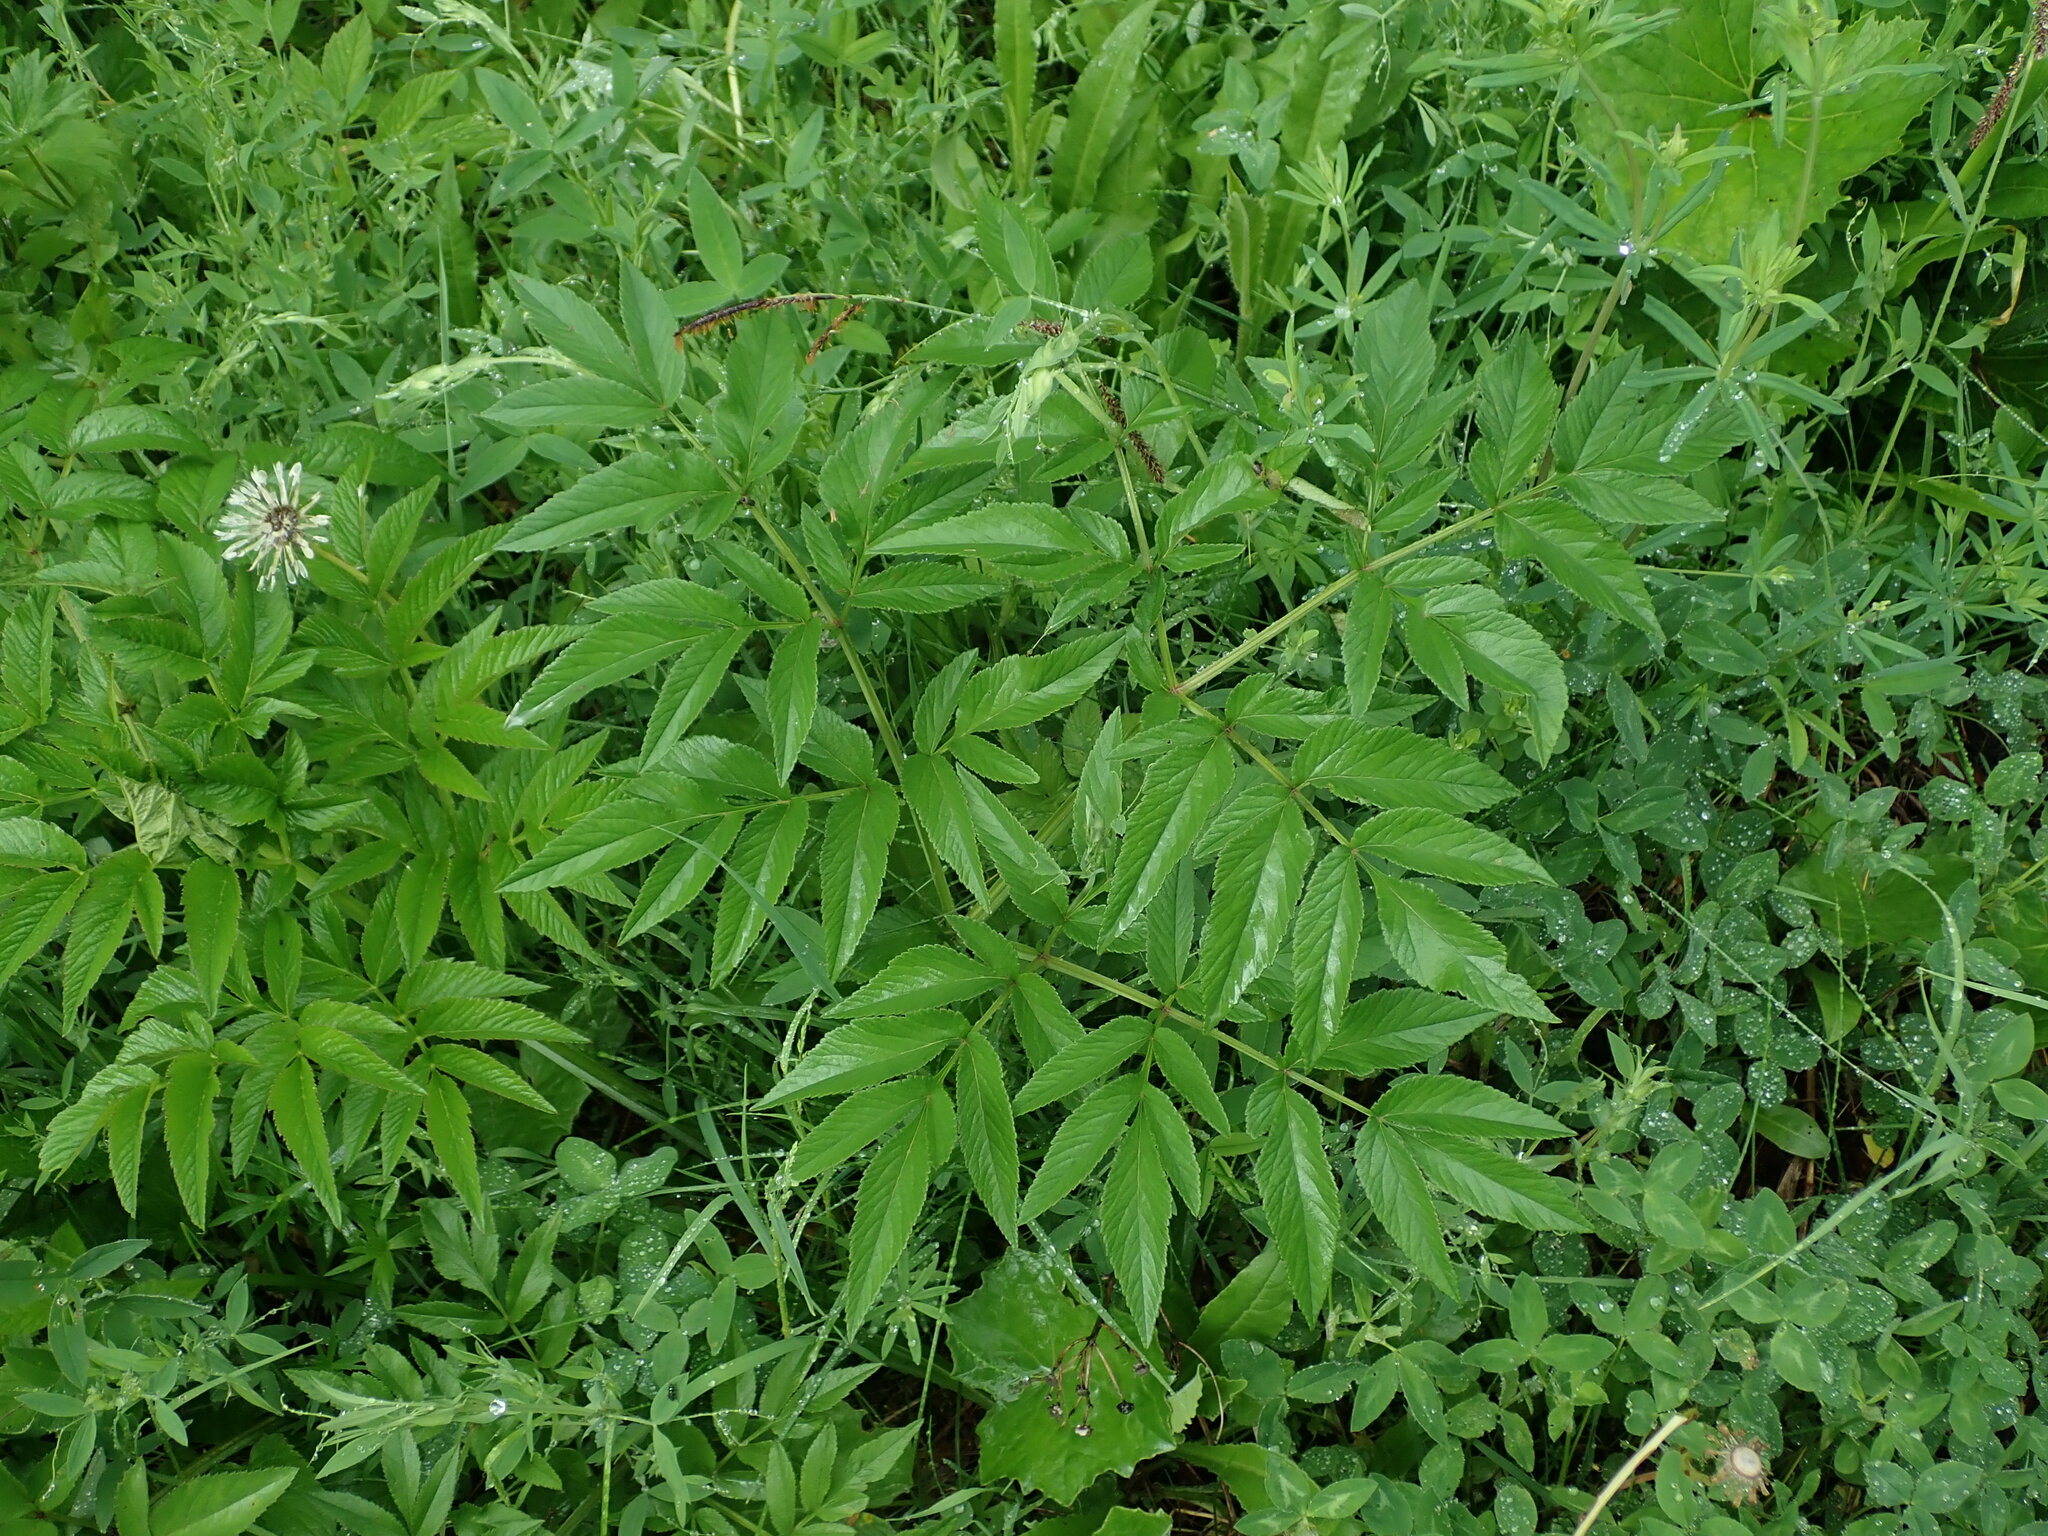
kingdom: Plantae
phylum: Tracheophyta
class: Magnoliopsida
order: Apiales
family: Apiaceae
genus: Angelica
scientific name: Angelica sylvestris
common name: Wild angelica
